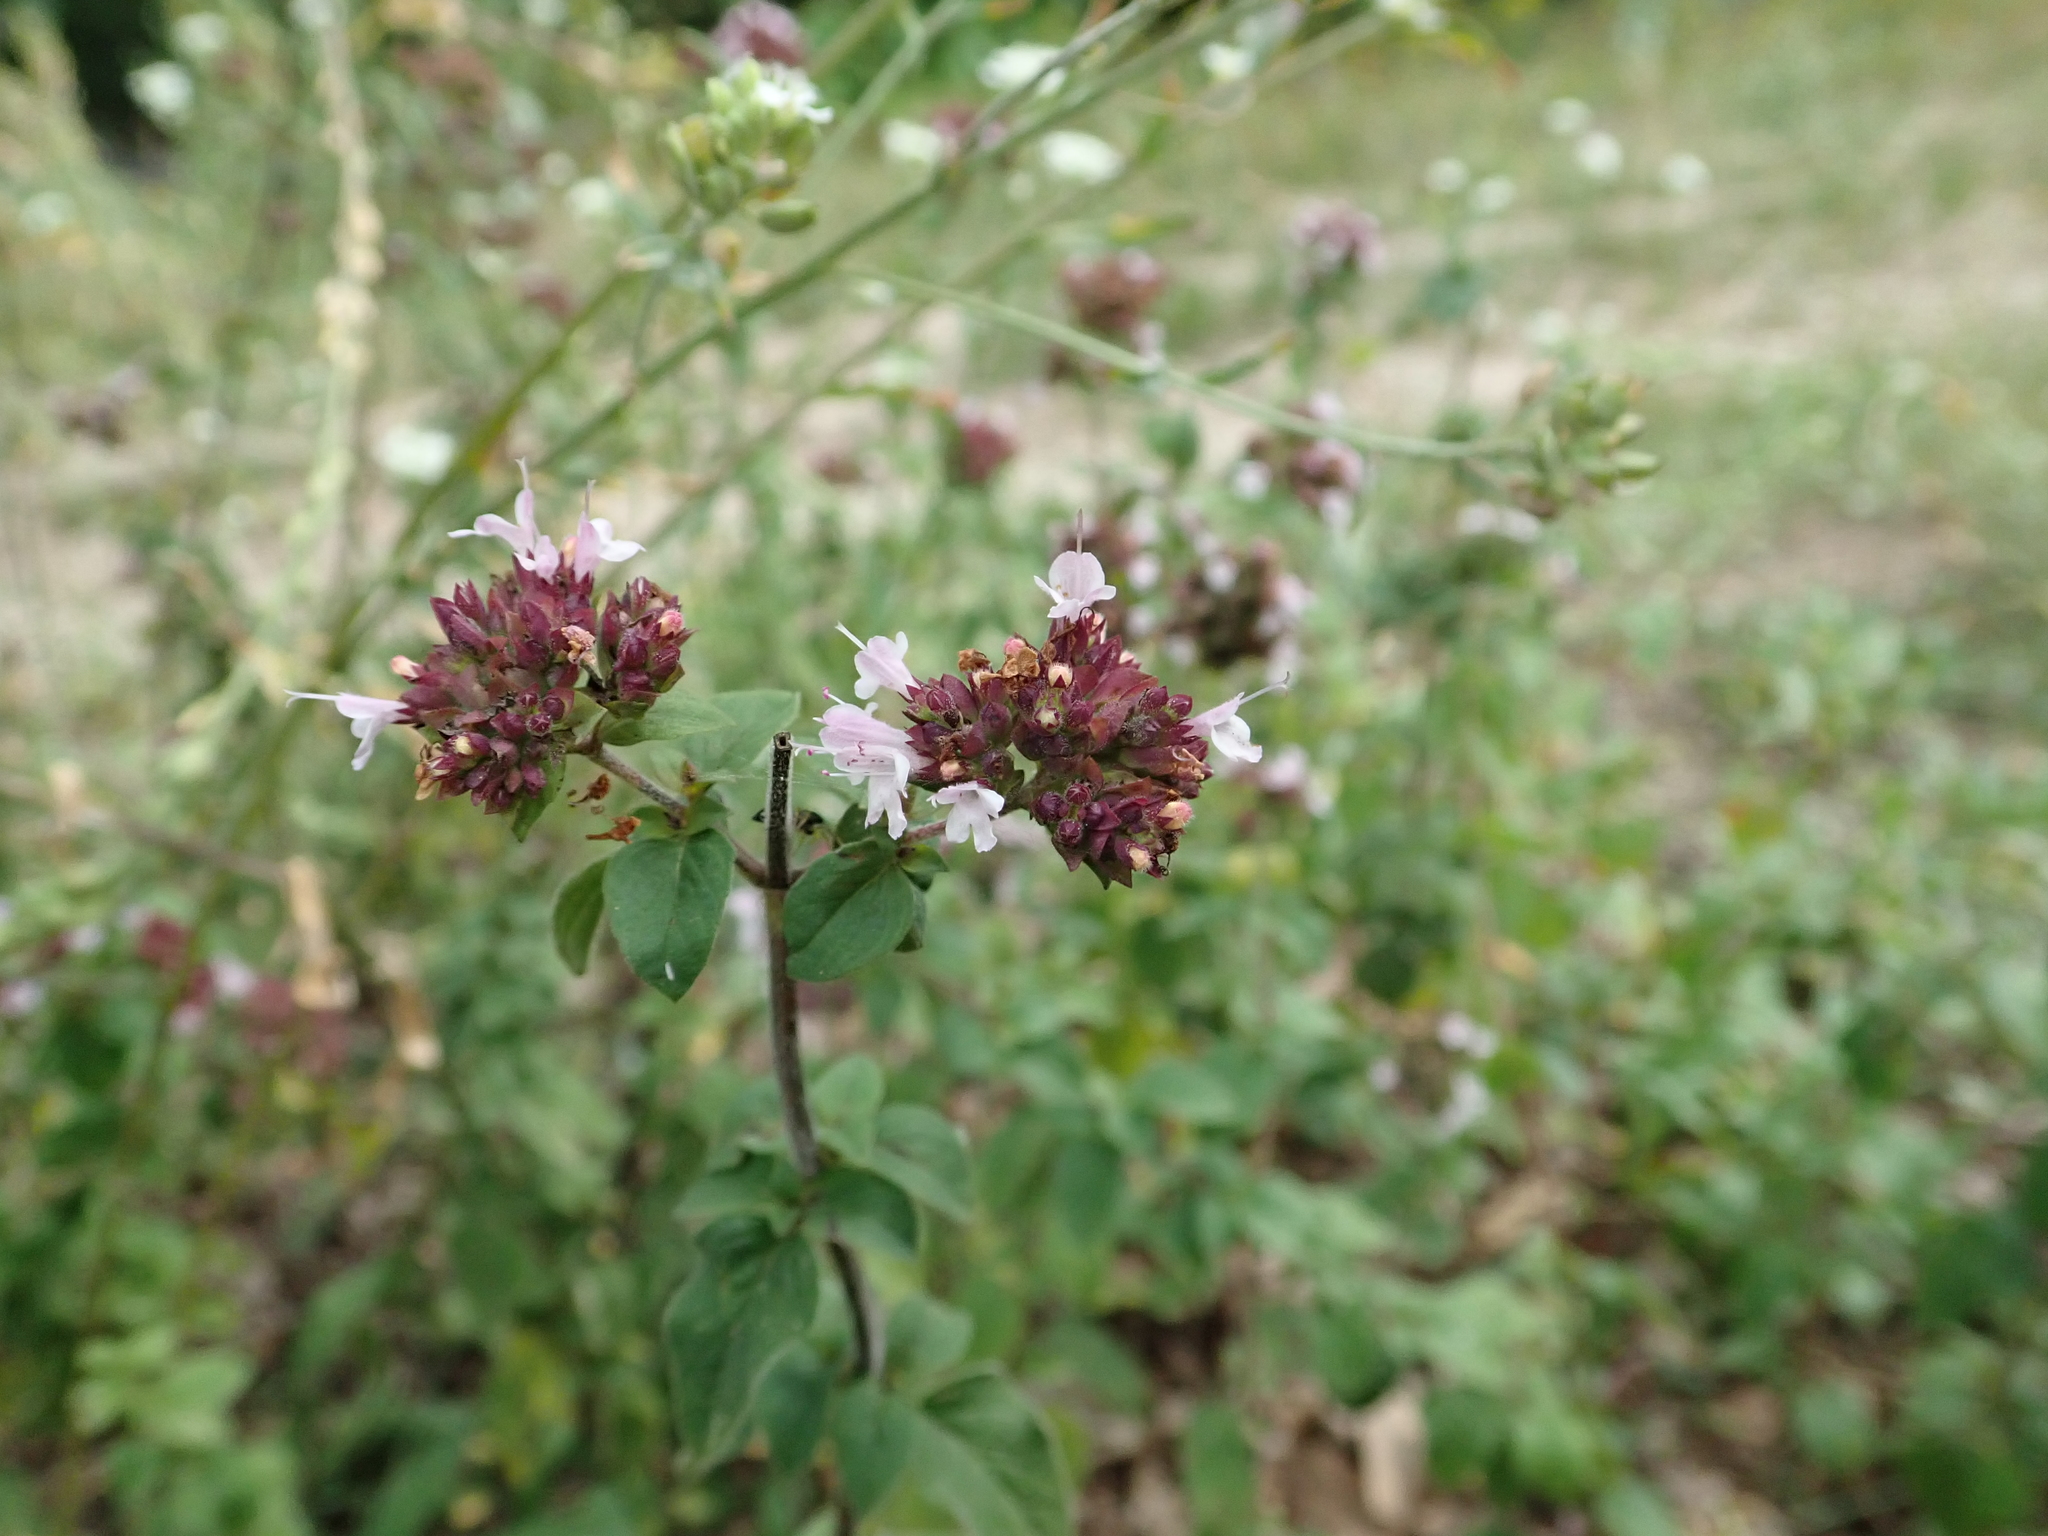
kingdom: Plantae
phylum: Tracheophyta
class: Magnoliopsida
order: Lamiales
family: Lamiaceae
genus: Origanum
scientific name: Origanum vulgare
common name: Wild marjoram
